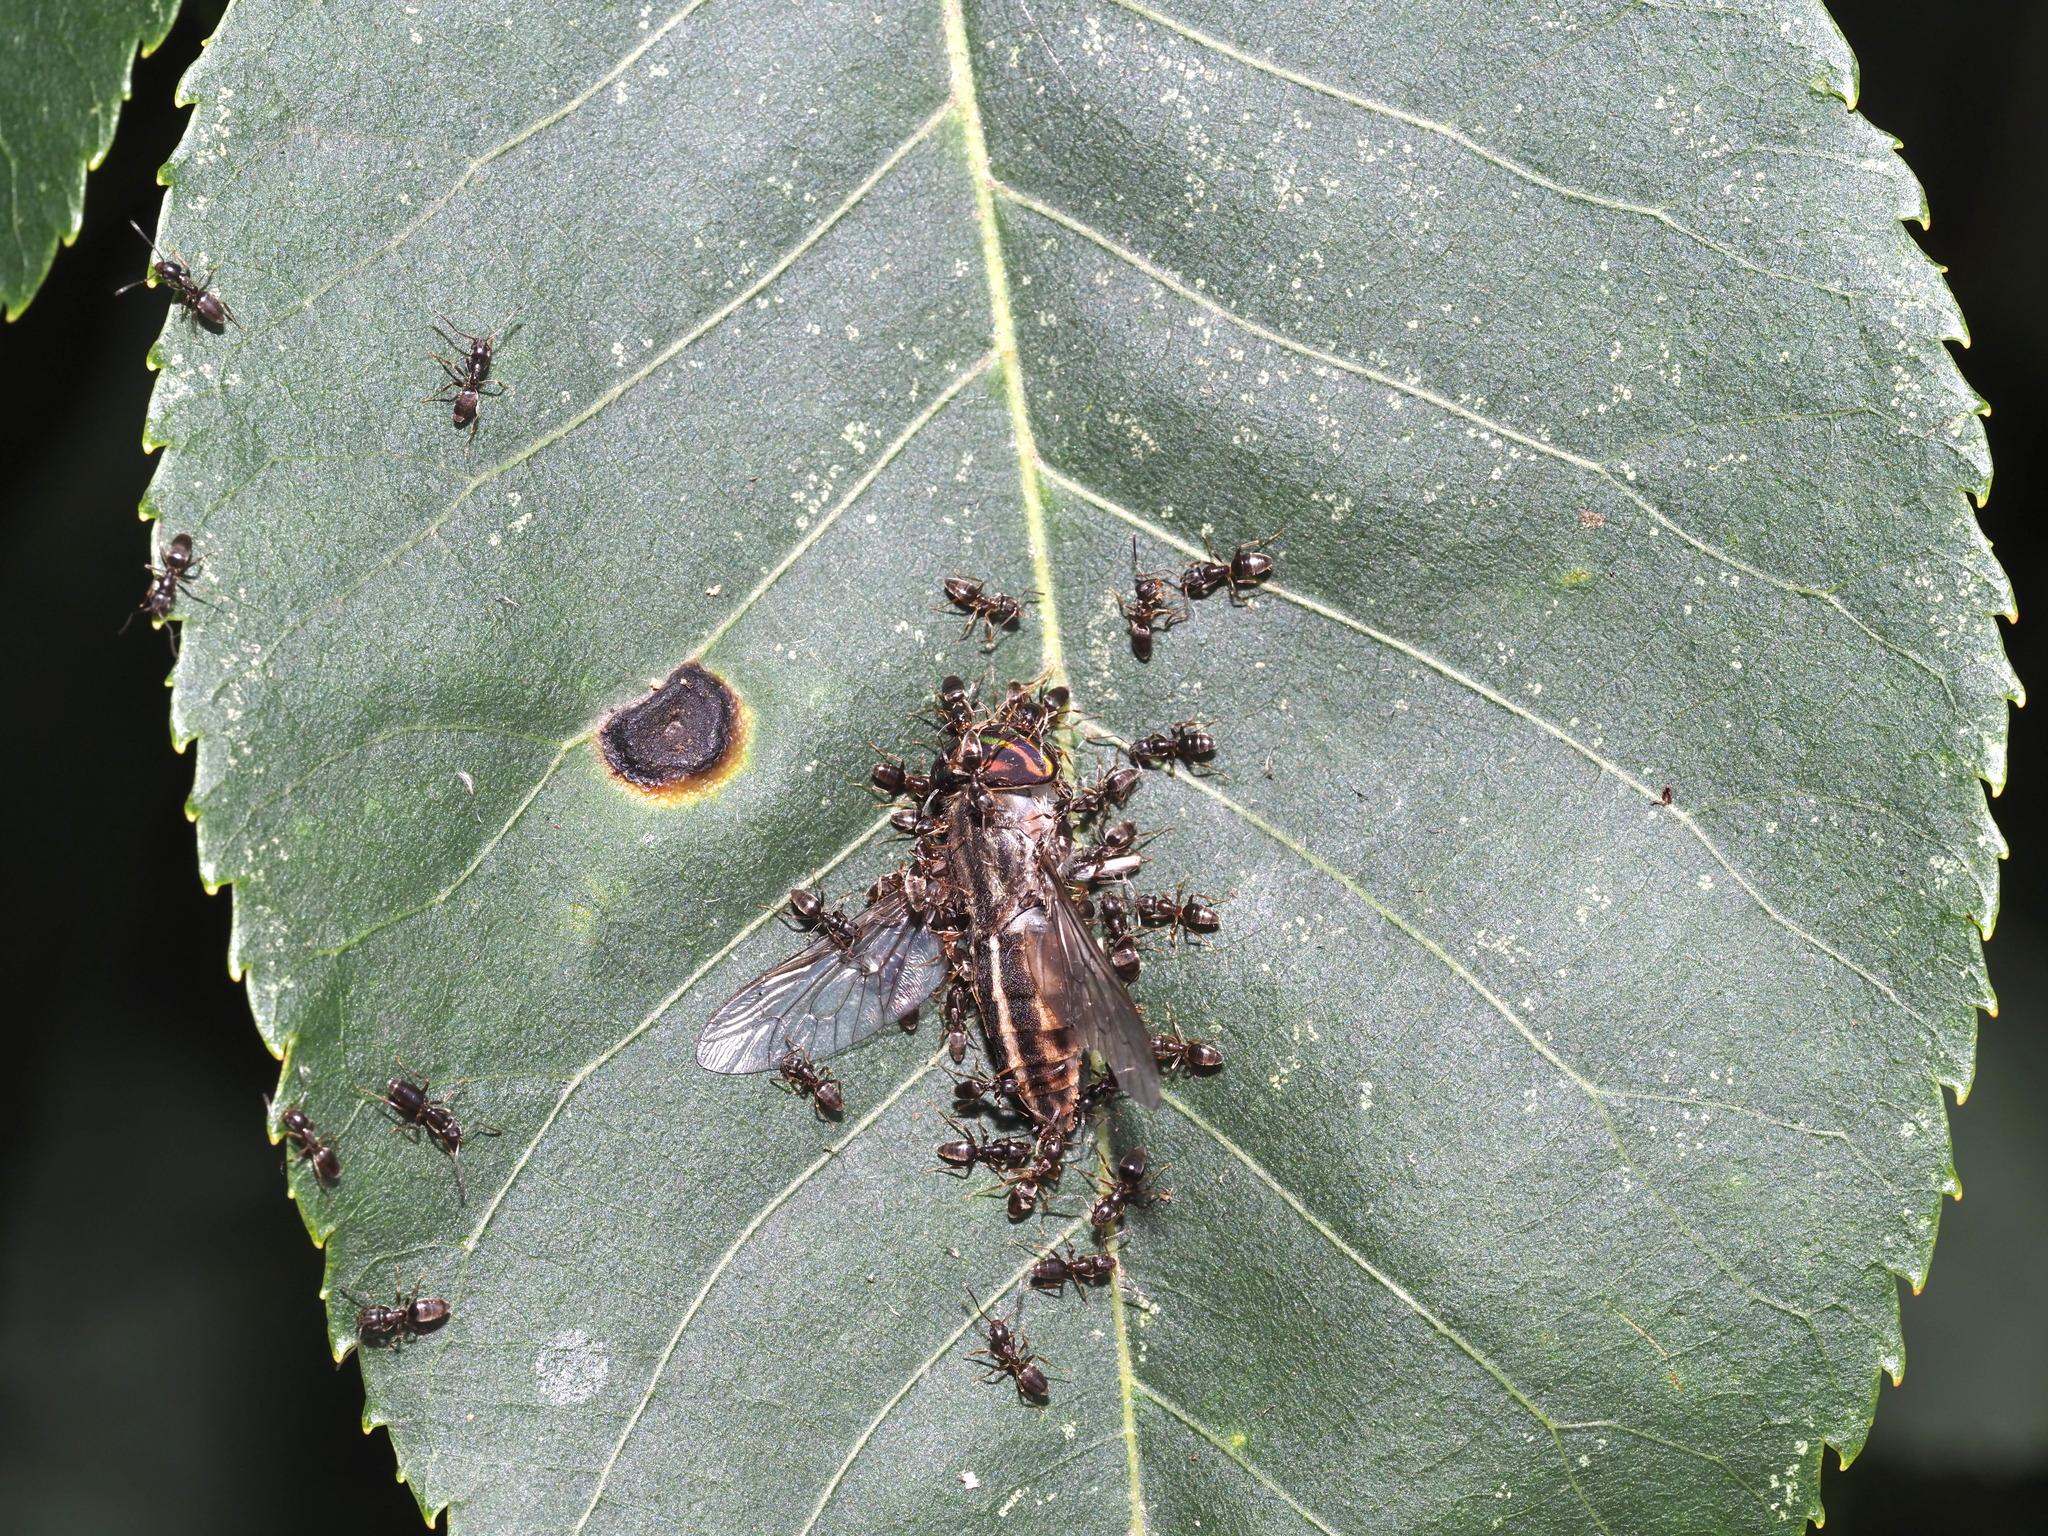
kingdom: Animalia
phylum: Arthropoda
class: Insecta
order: Hymenoptera
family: Formicidae
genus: Tapinoma
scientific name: Tapinoma sessile
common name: Odorous house ant
